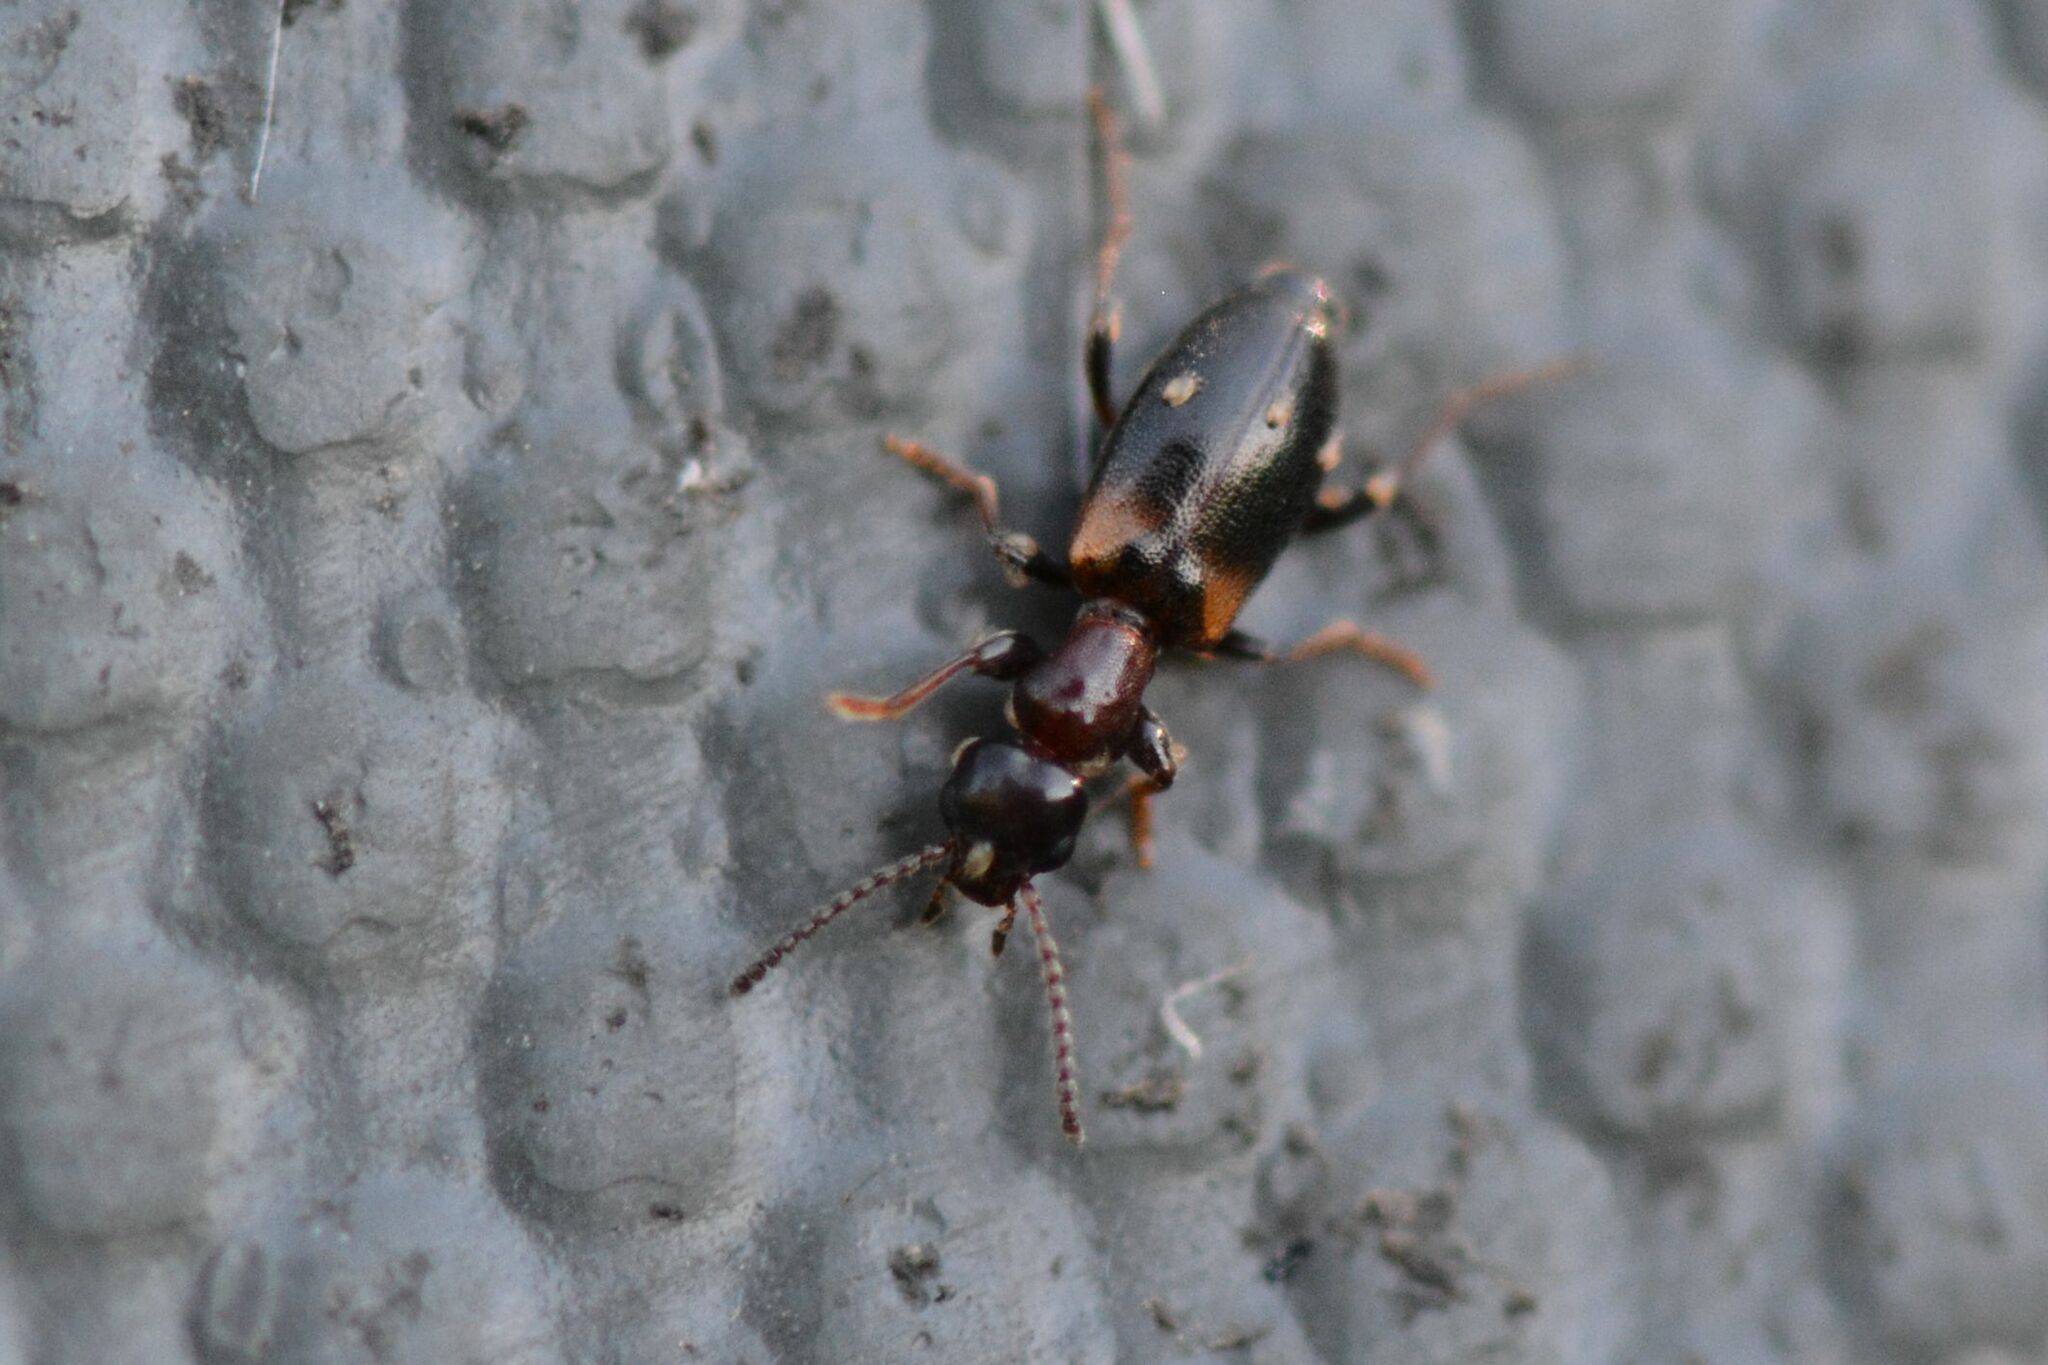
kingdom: Animalia
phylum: Arthropoda
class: Insecta
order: Coleoptera
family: Anthicidae
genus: Omonadus
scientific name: Omonadus floralis
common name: Narrownecked grain beetle
